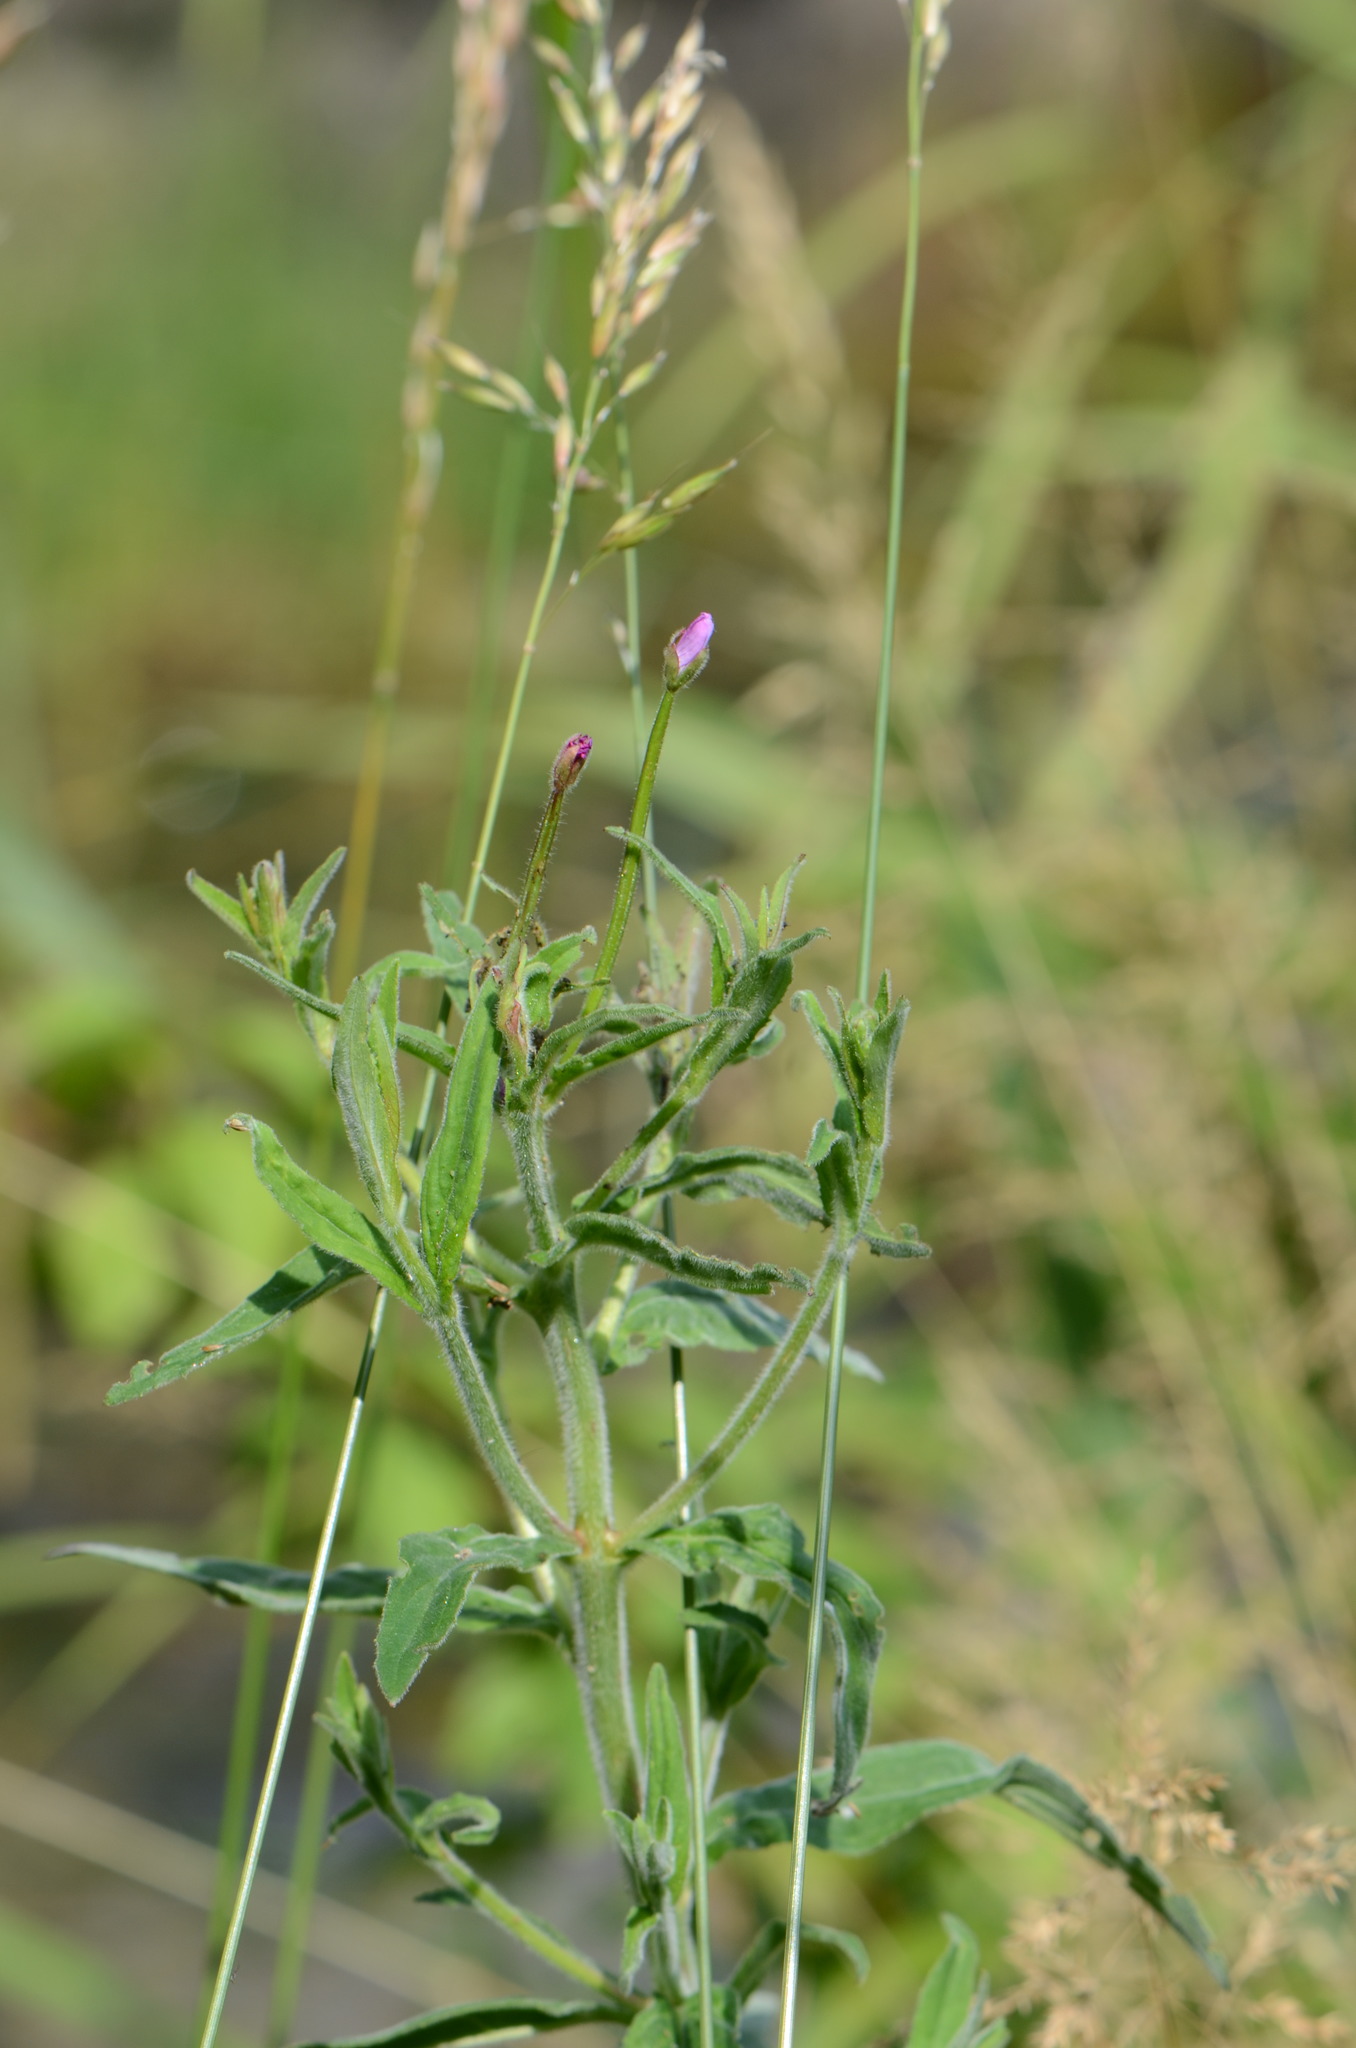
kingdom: Plantae
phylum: Tracheophyta
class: Magnoliopsida
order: Myrtales
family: Onagraceae
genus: Epilobium
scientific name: Epilobium hirsutum
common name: Great willowherb
